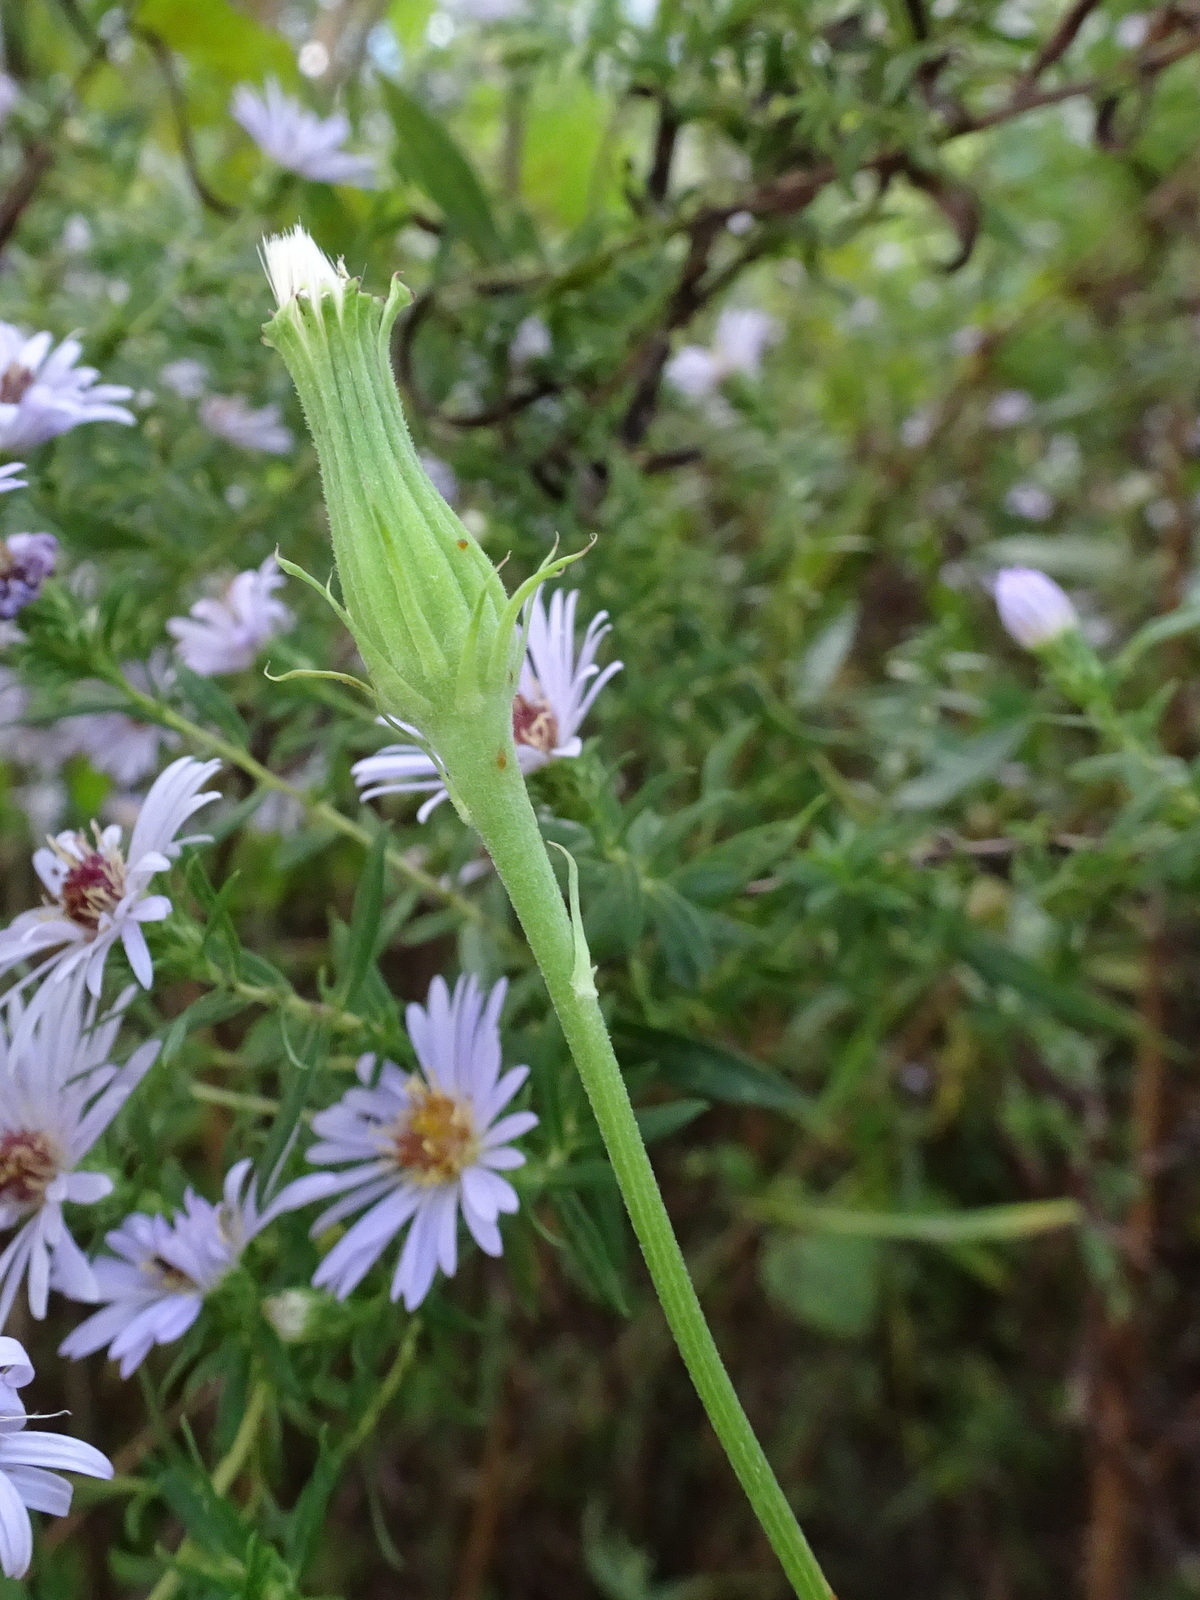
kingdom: Plantae
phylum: Tracheophyta
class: Magnoliopsida
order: Asterales
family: Asteraceae
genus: Pyrrhopappus
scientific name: Pyrrhopappus carolinianus
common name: Carolina desert-chicory
